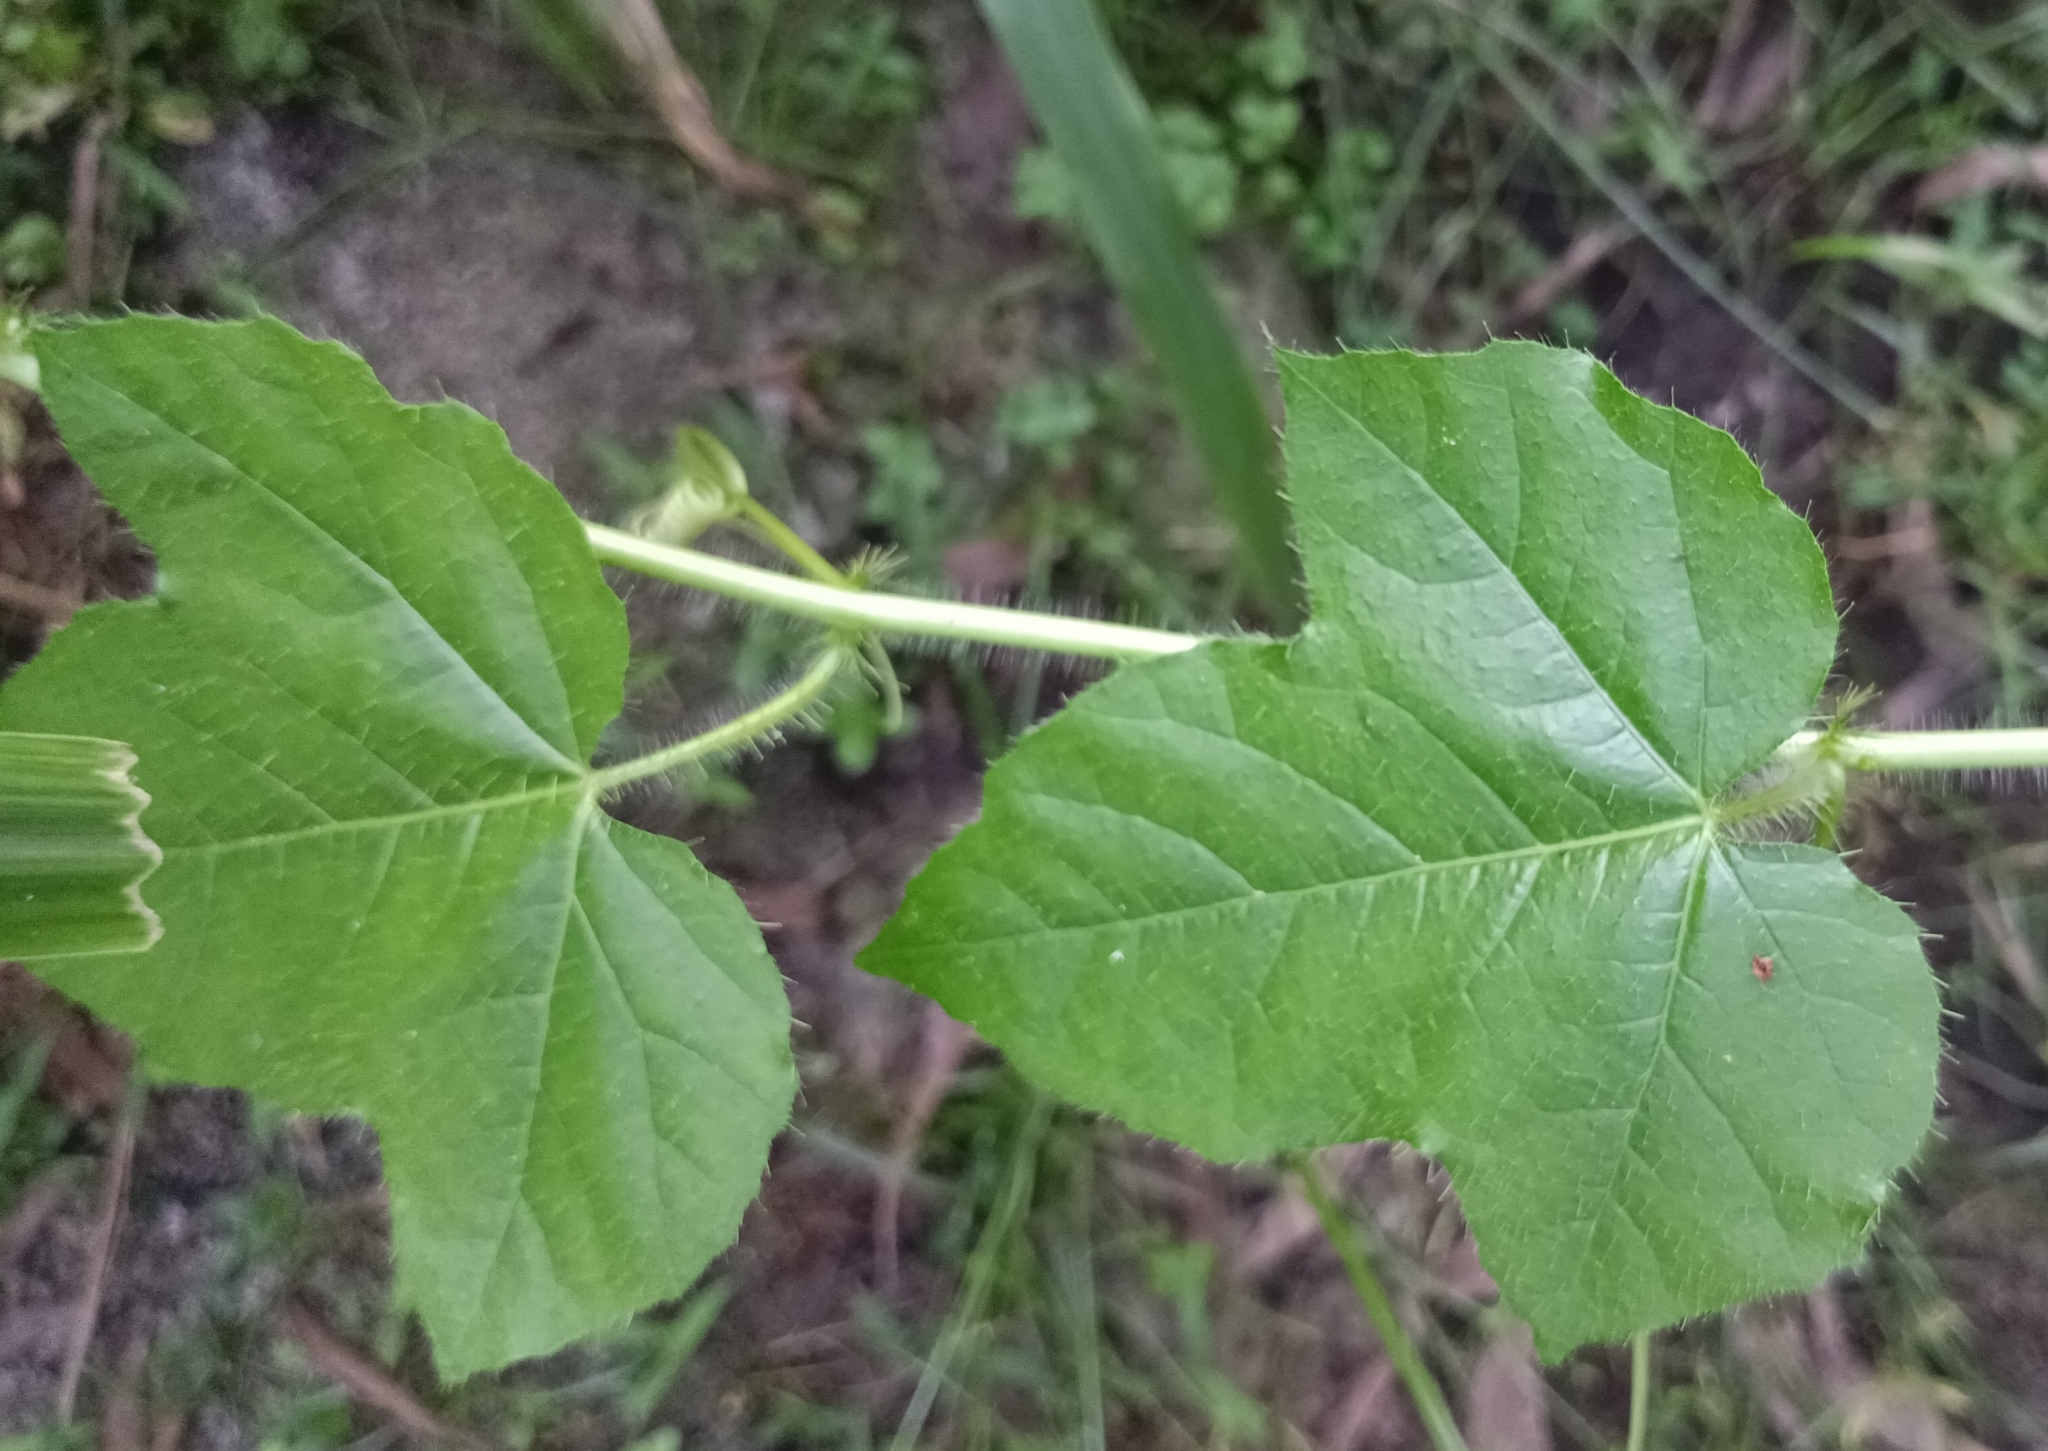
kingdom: Plantae
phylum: Tracheophyta
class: Magnoliopsida
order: Malpighiales
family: Passifloraceae
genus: Passiflora
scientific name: Passiflora foetida
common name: Fetid passionflower
